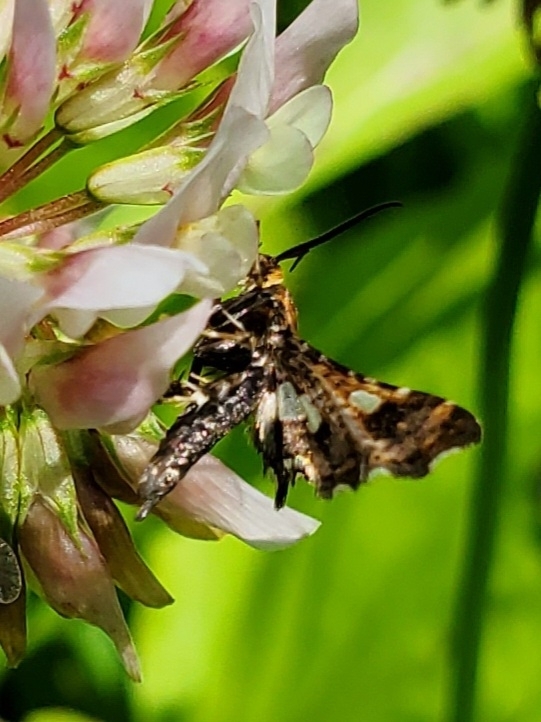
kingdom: Animalia
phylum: Arthropoda
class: Insecta
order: Lepidoptera
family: Thyrididae
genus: Thyris
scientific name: Thyris maculata
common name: Spotted thyris moth
